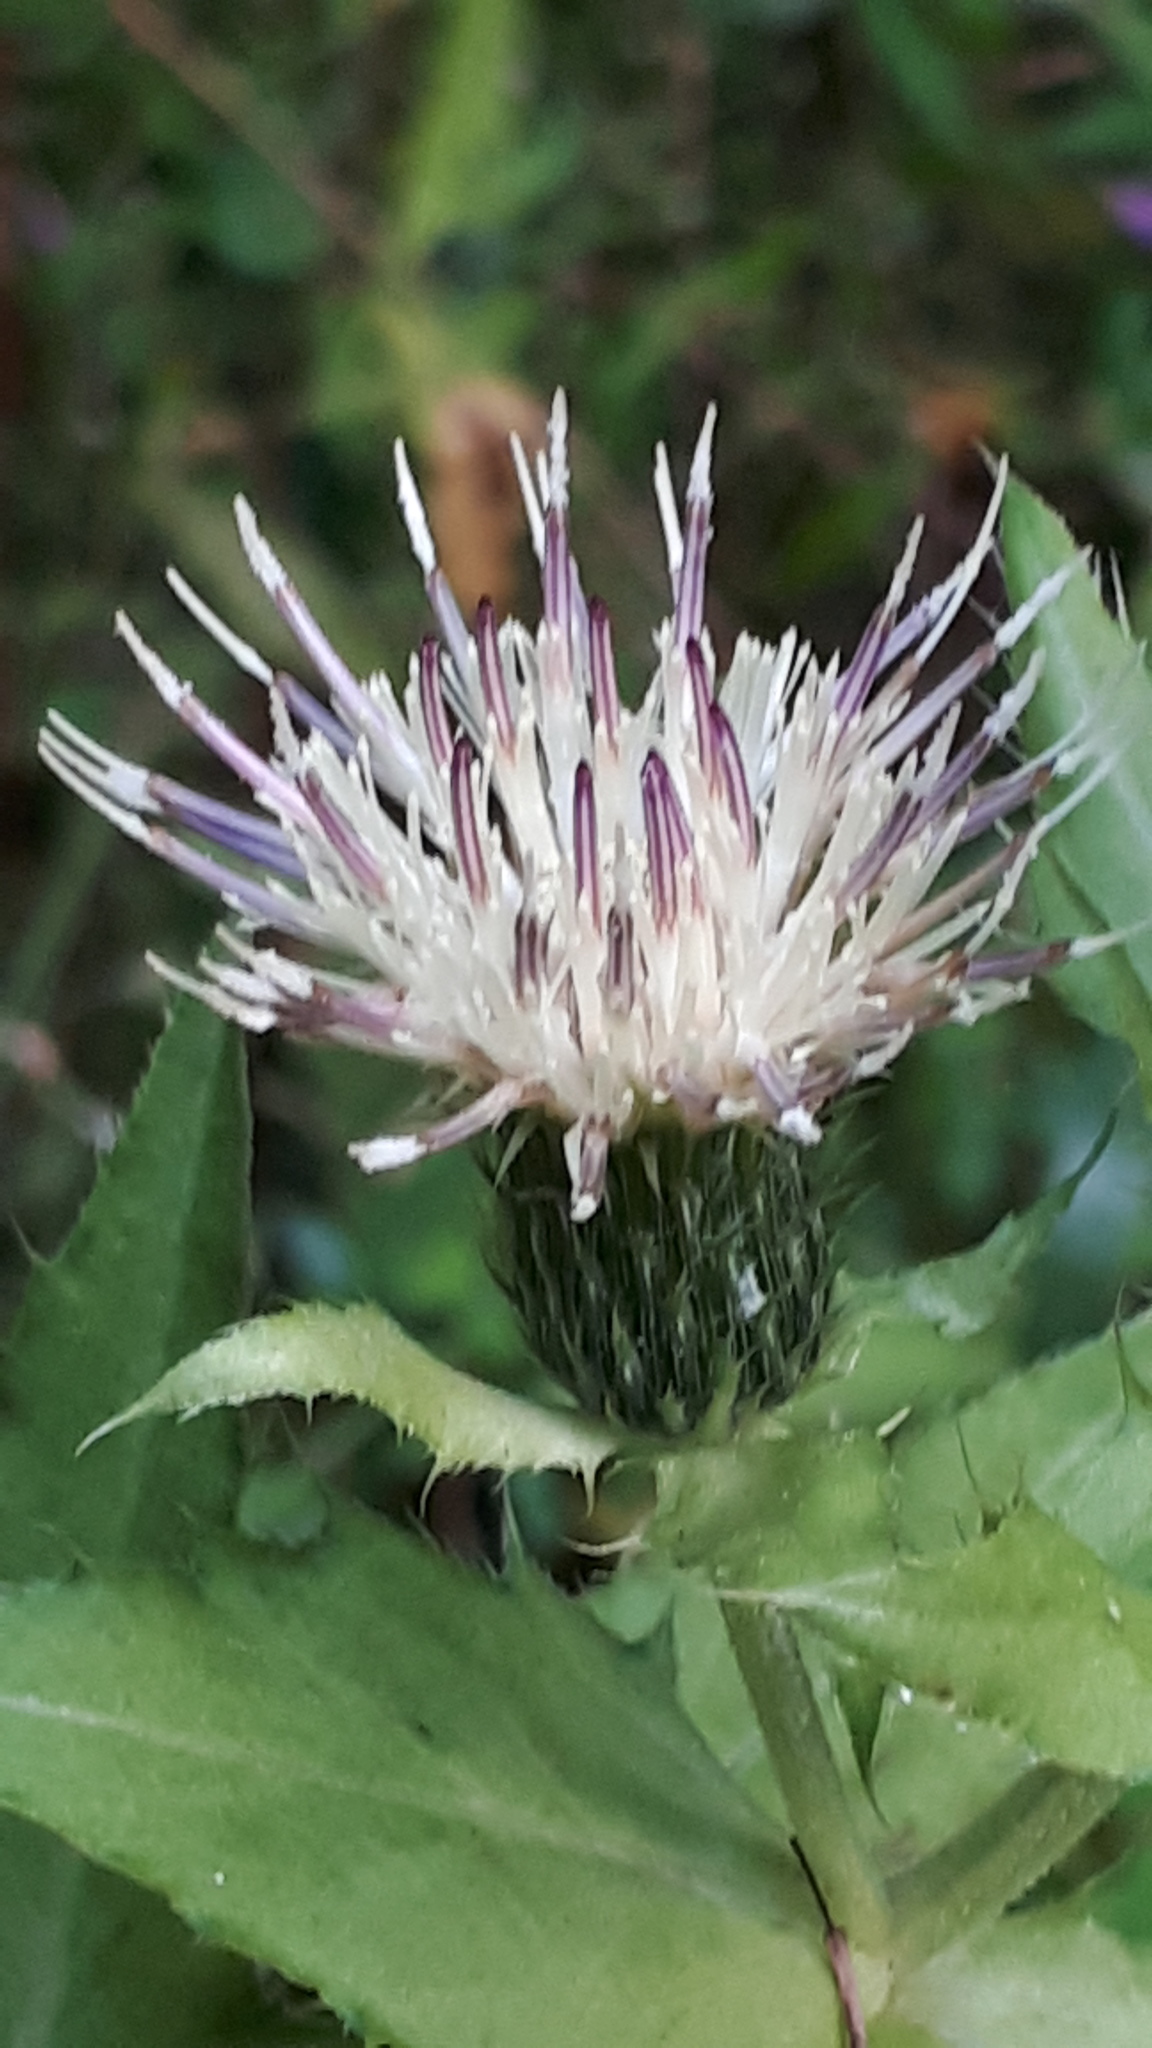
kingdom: Plantae
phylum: Tracheophyta
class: Magnoliopsida
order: Asterales
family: Asteraceae
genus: Cirsium
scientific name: Cirsium oleraceum
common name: Cabbage thistle
